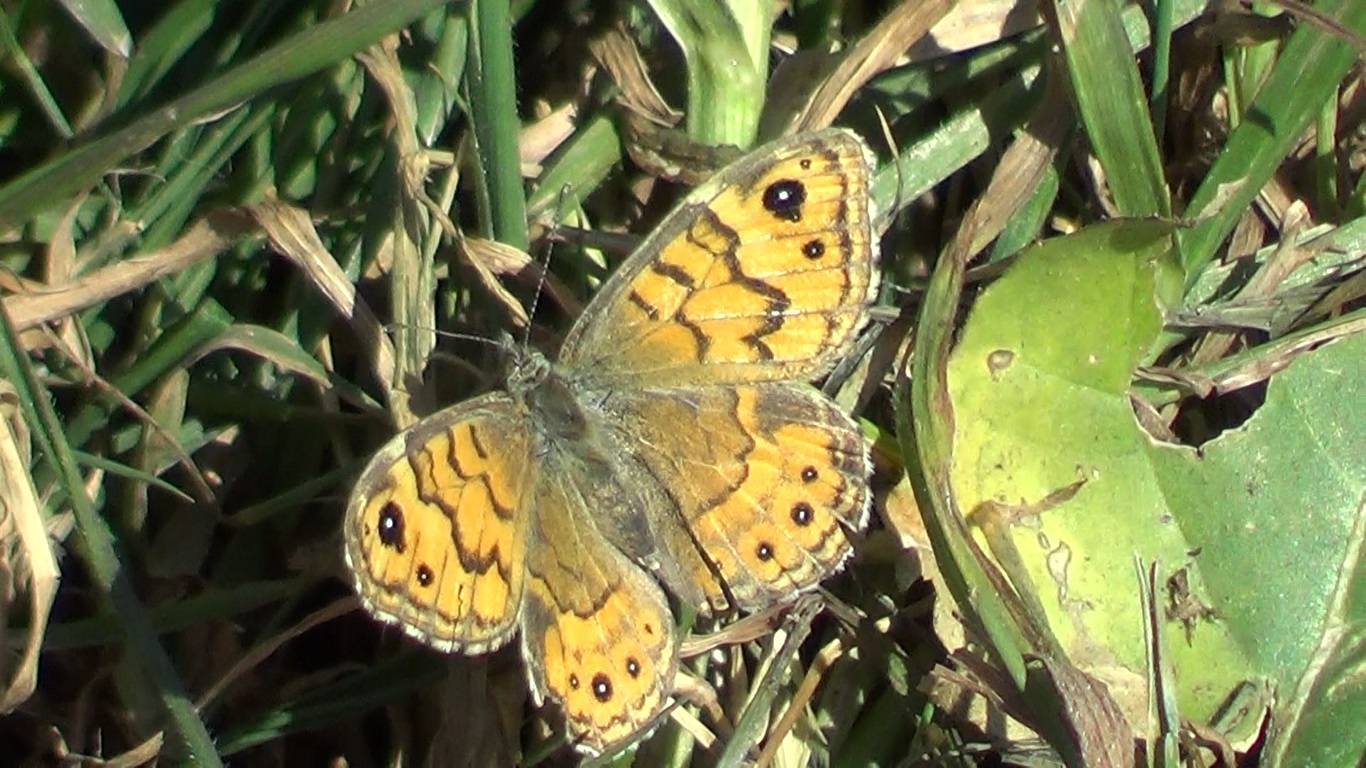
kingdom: Animalia
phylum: Arthropoda
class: Insecta
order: Lepidoptera
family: Nymphalidae
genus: Pararge
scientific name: Pararge Lasiommata megera
